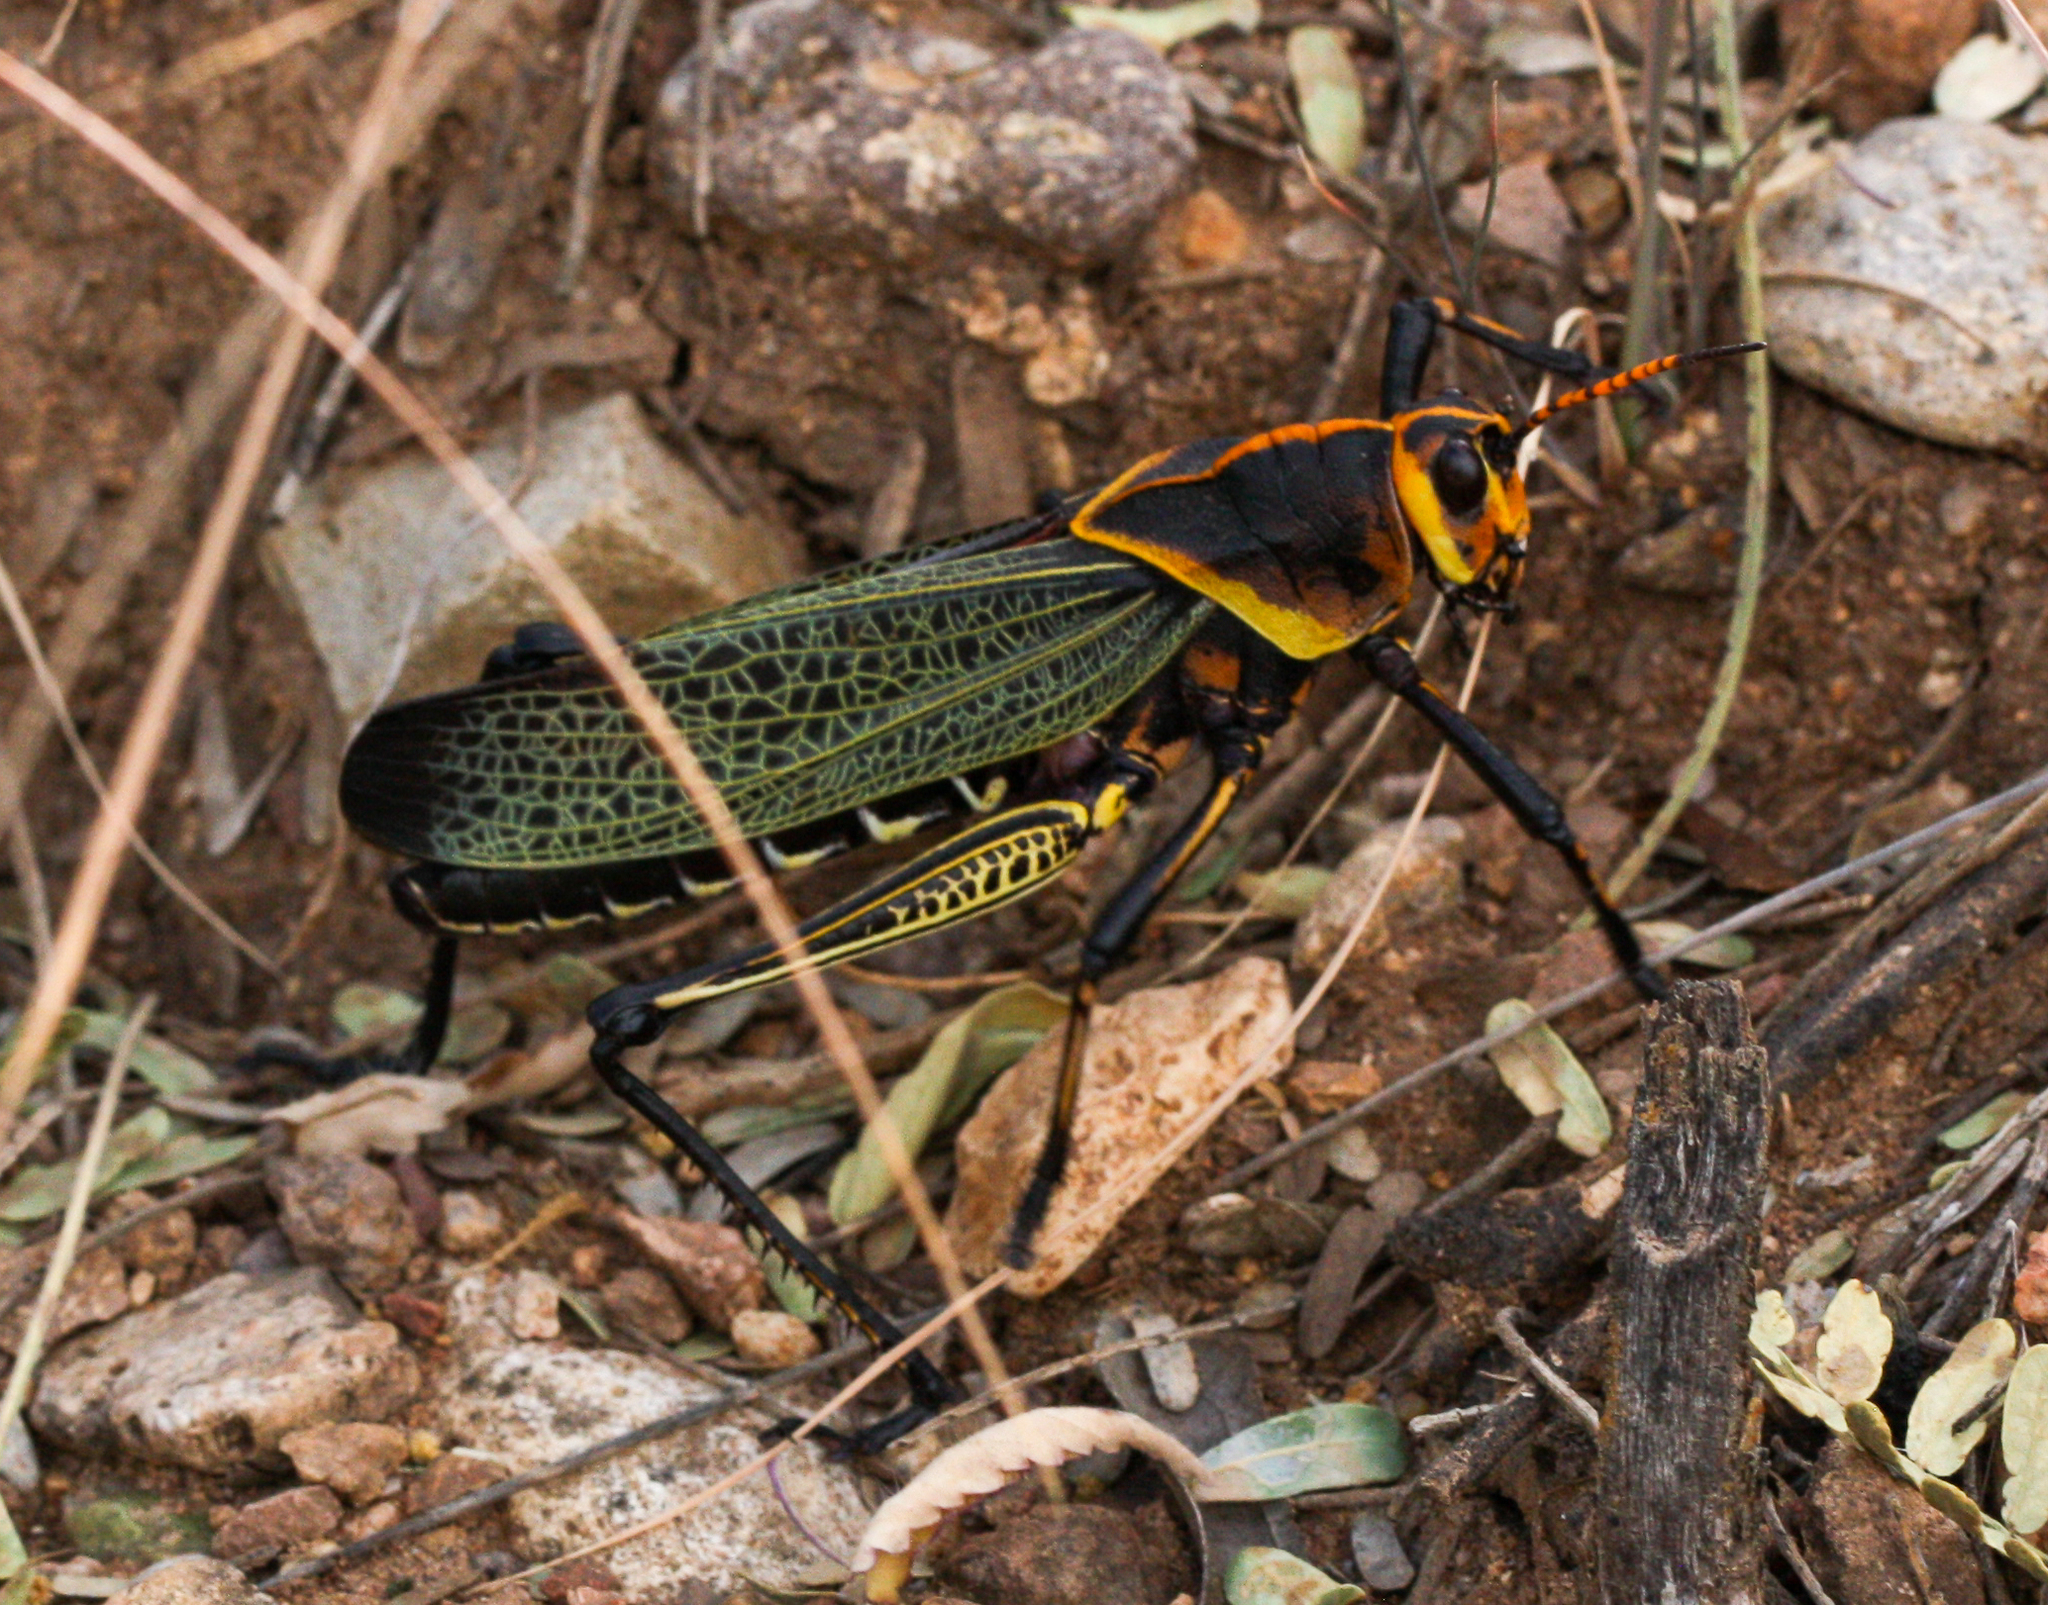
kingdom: Animalia
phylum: Arthropoda
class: Insecta
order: Orthoptera
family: Romaleidae
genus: Romalea
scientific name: Romalea
